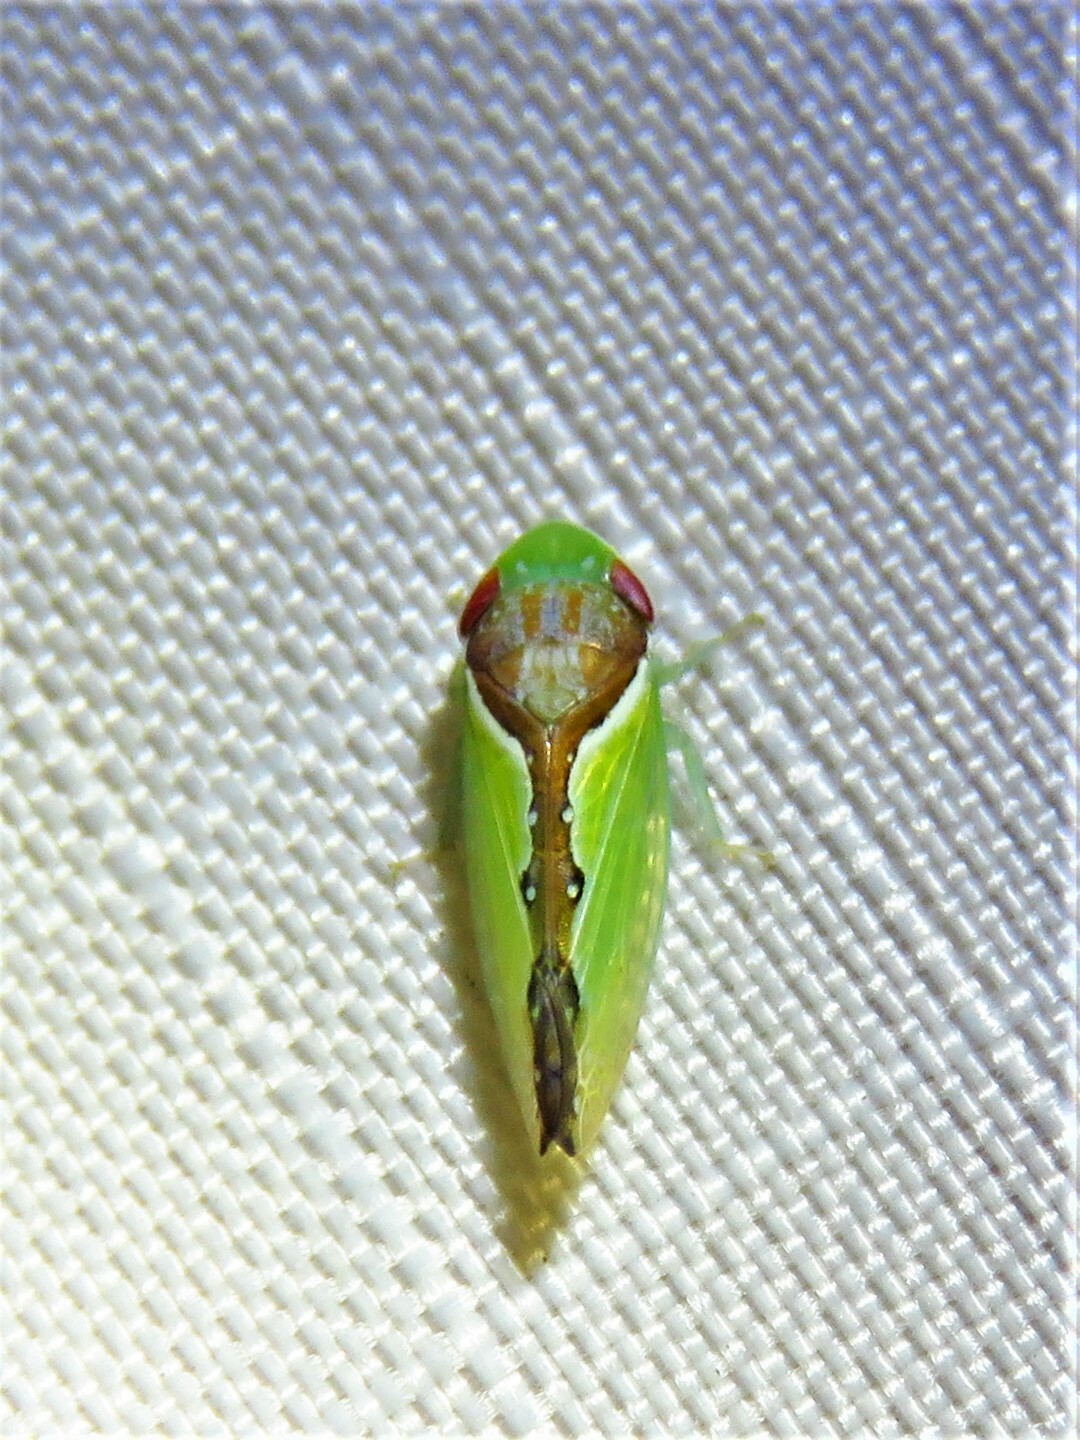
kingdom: Animalia
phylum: Arthropoda
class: Insecta
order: Hemiptera
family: Cicadellidae
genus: Omansobara ing
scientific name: Omansobara ing Omansobara palliolata
